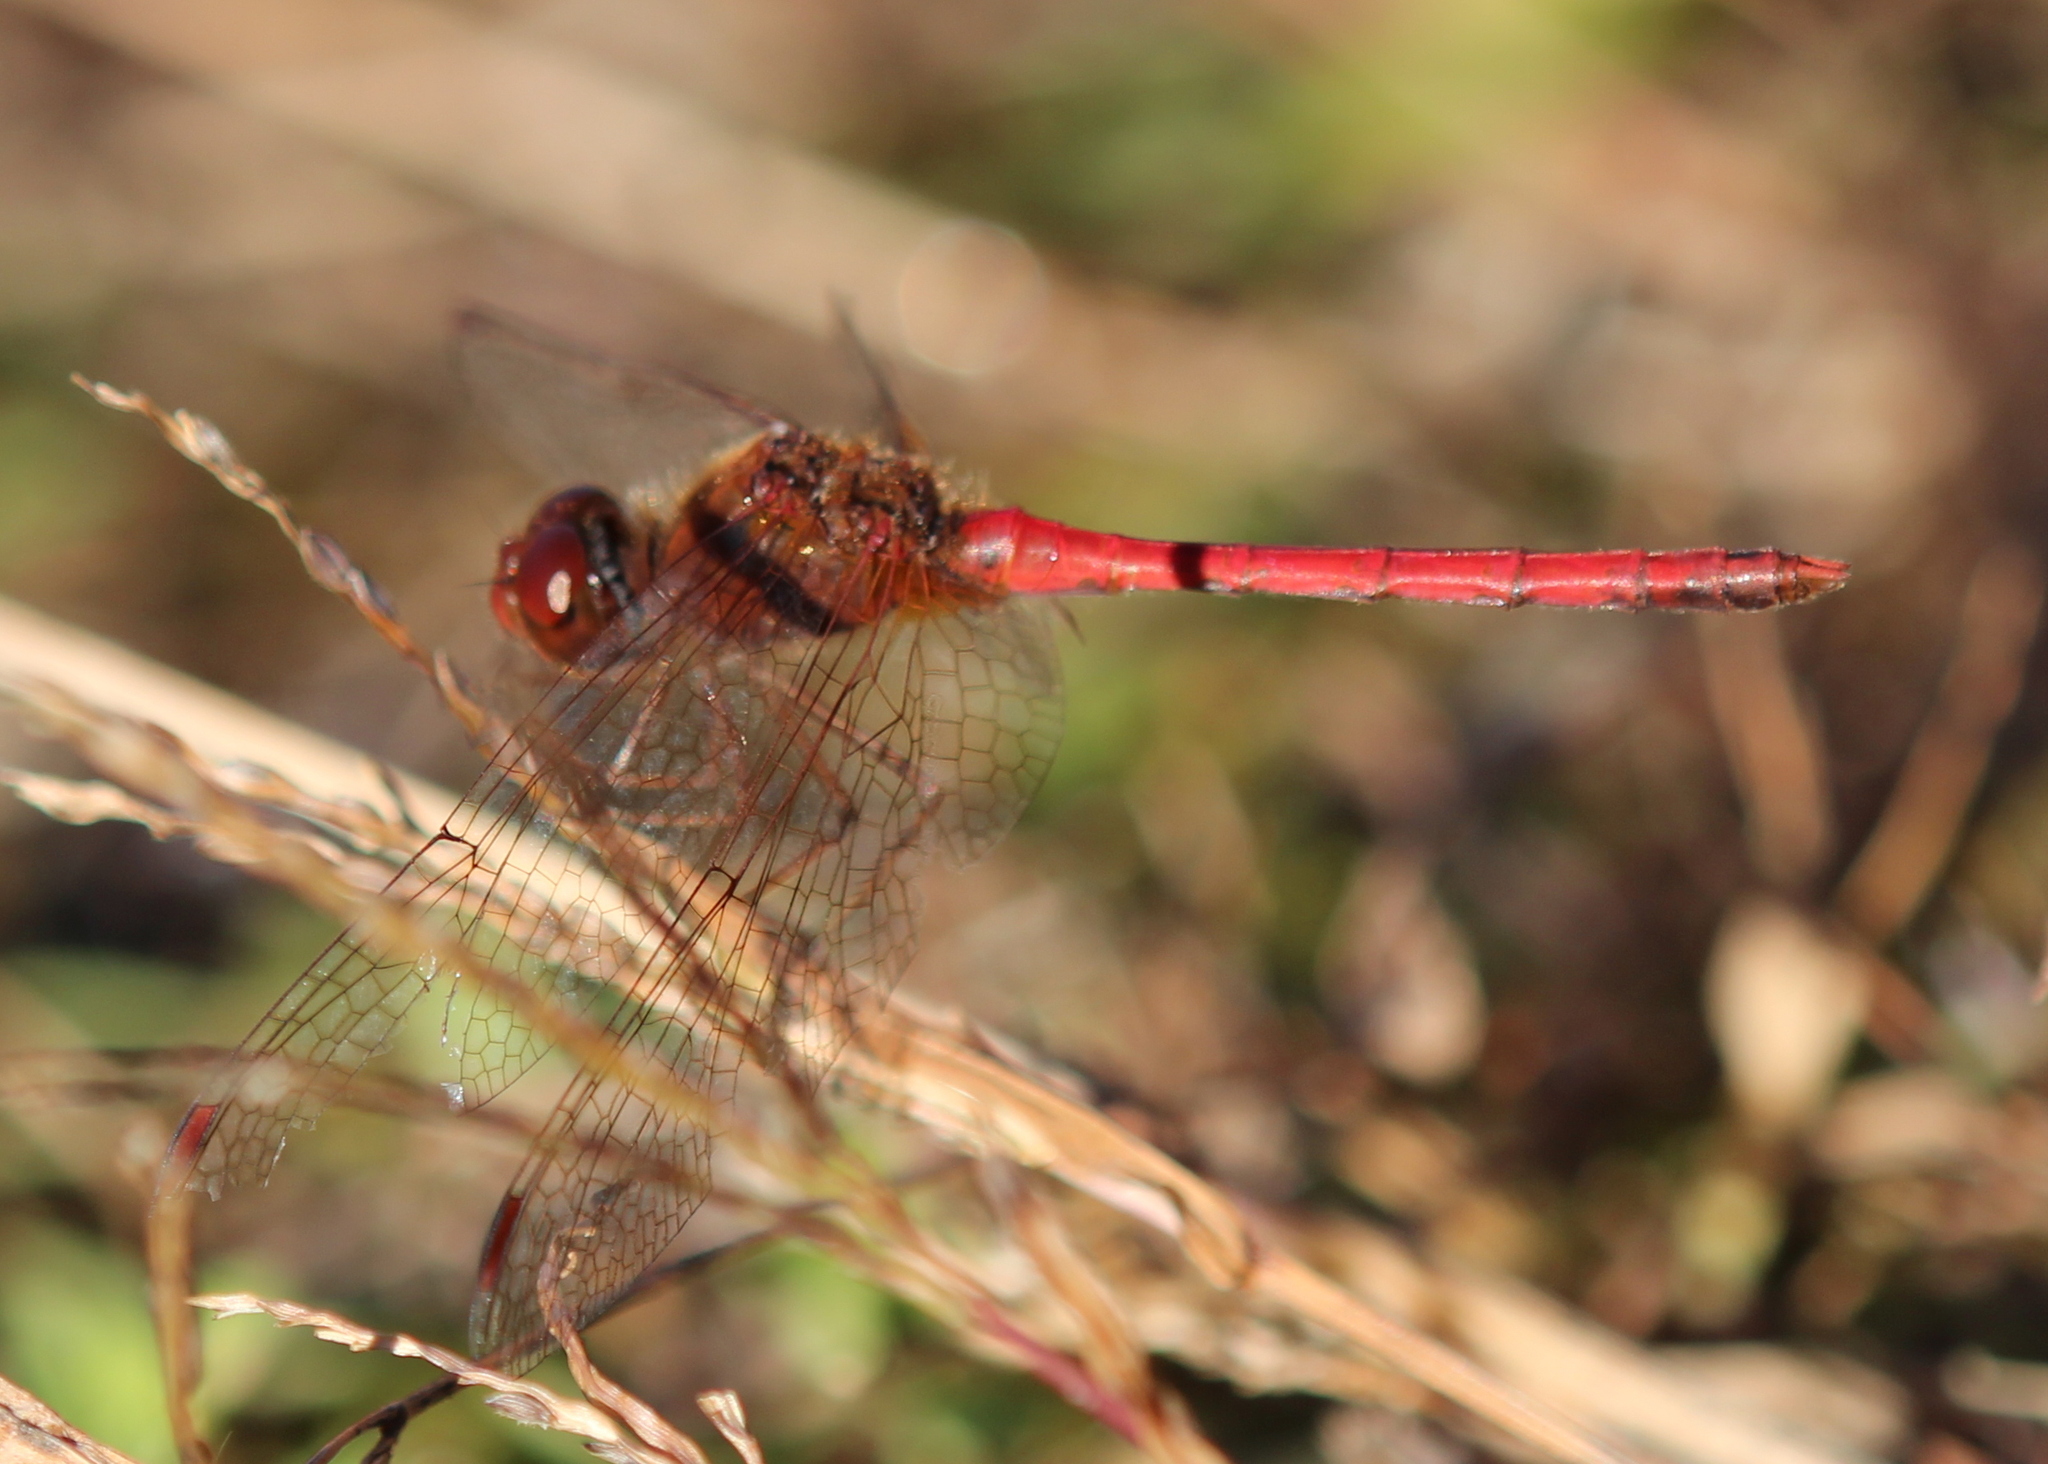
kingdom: Animalia
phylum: Arthropoda
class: Insecta
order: Odonata
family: Libellulidae
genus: Sympetrum
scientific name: Sympetrum vicinum
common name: Autumn meadowhawk
